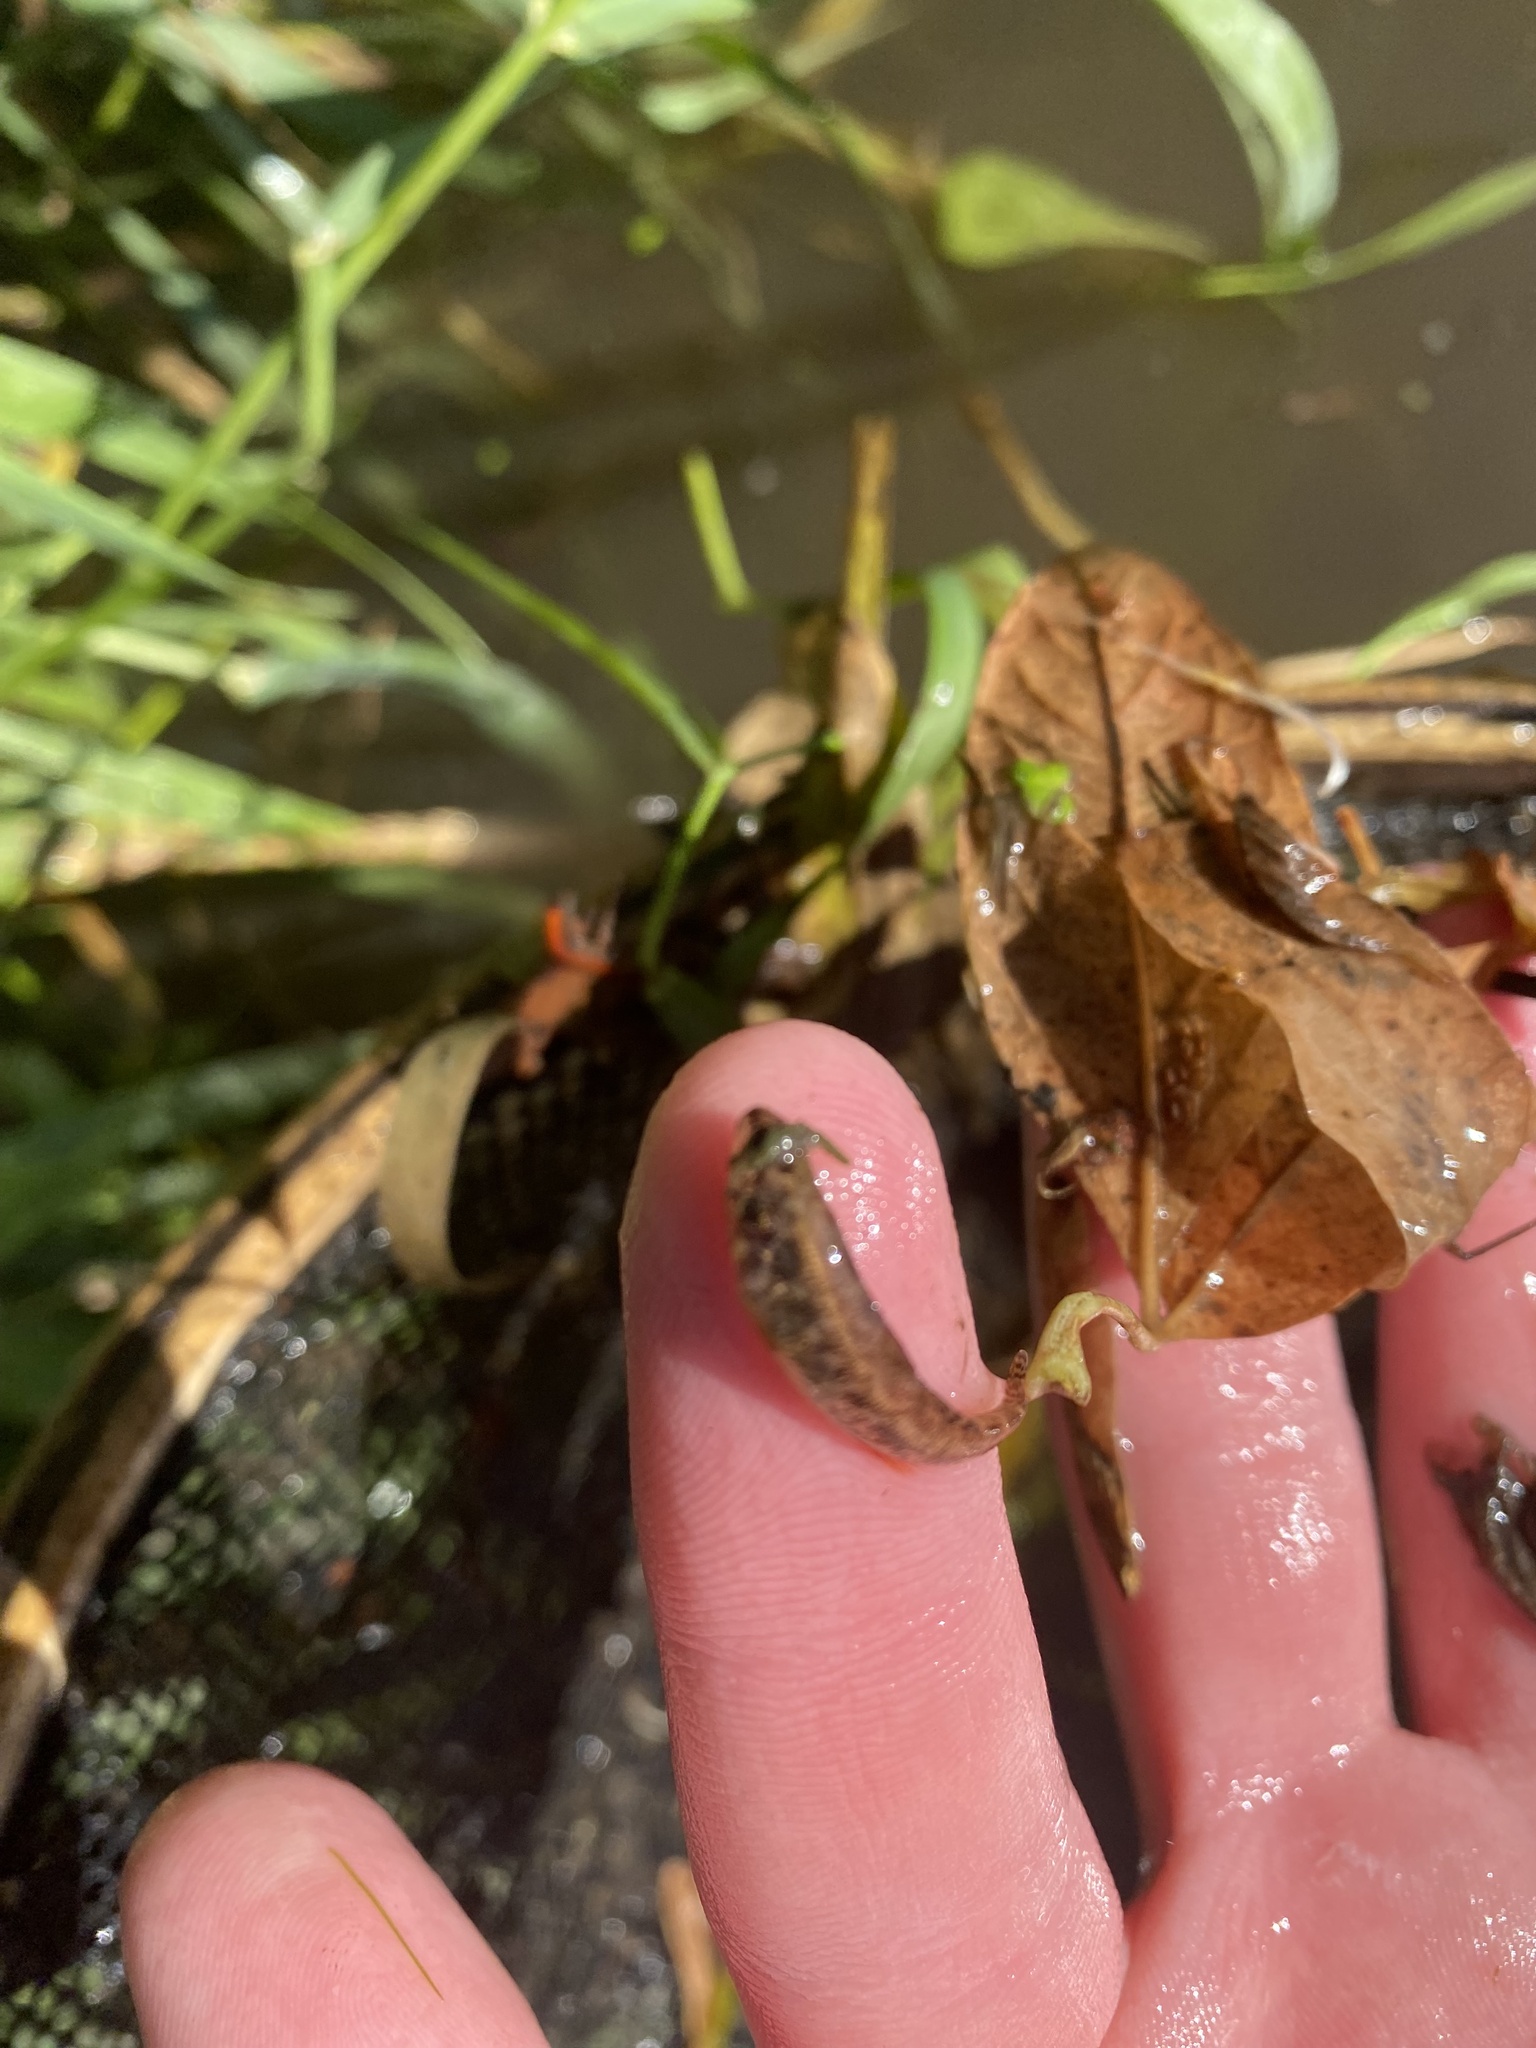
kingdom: Animalia
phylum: Chordata
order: Perciformes
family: Percidae
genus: Etheostoma
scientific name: Etheostoma microperca
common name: Least darter
